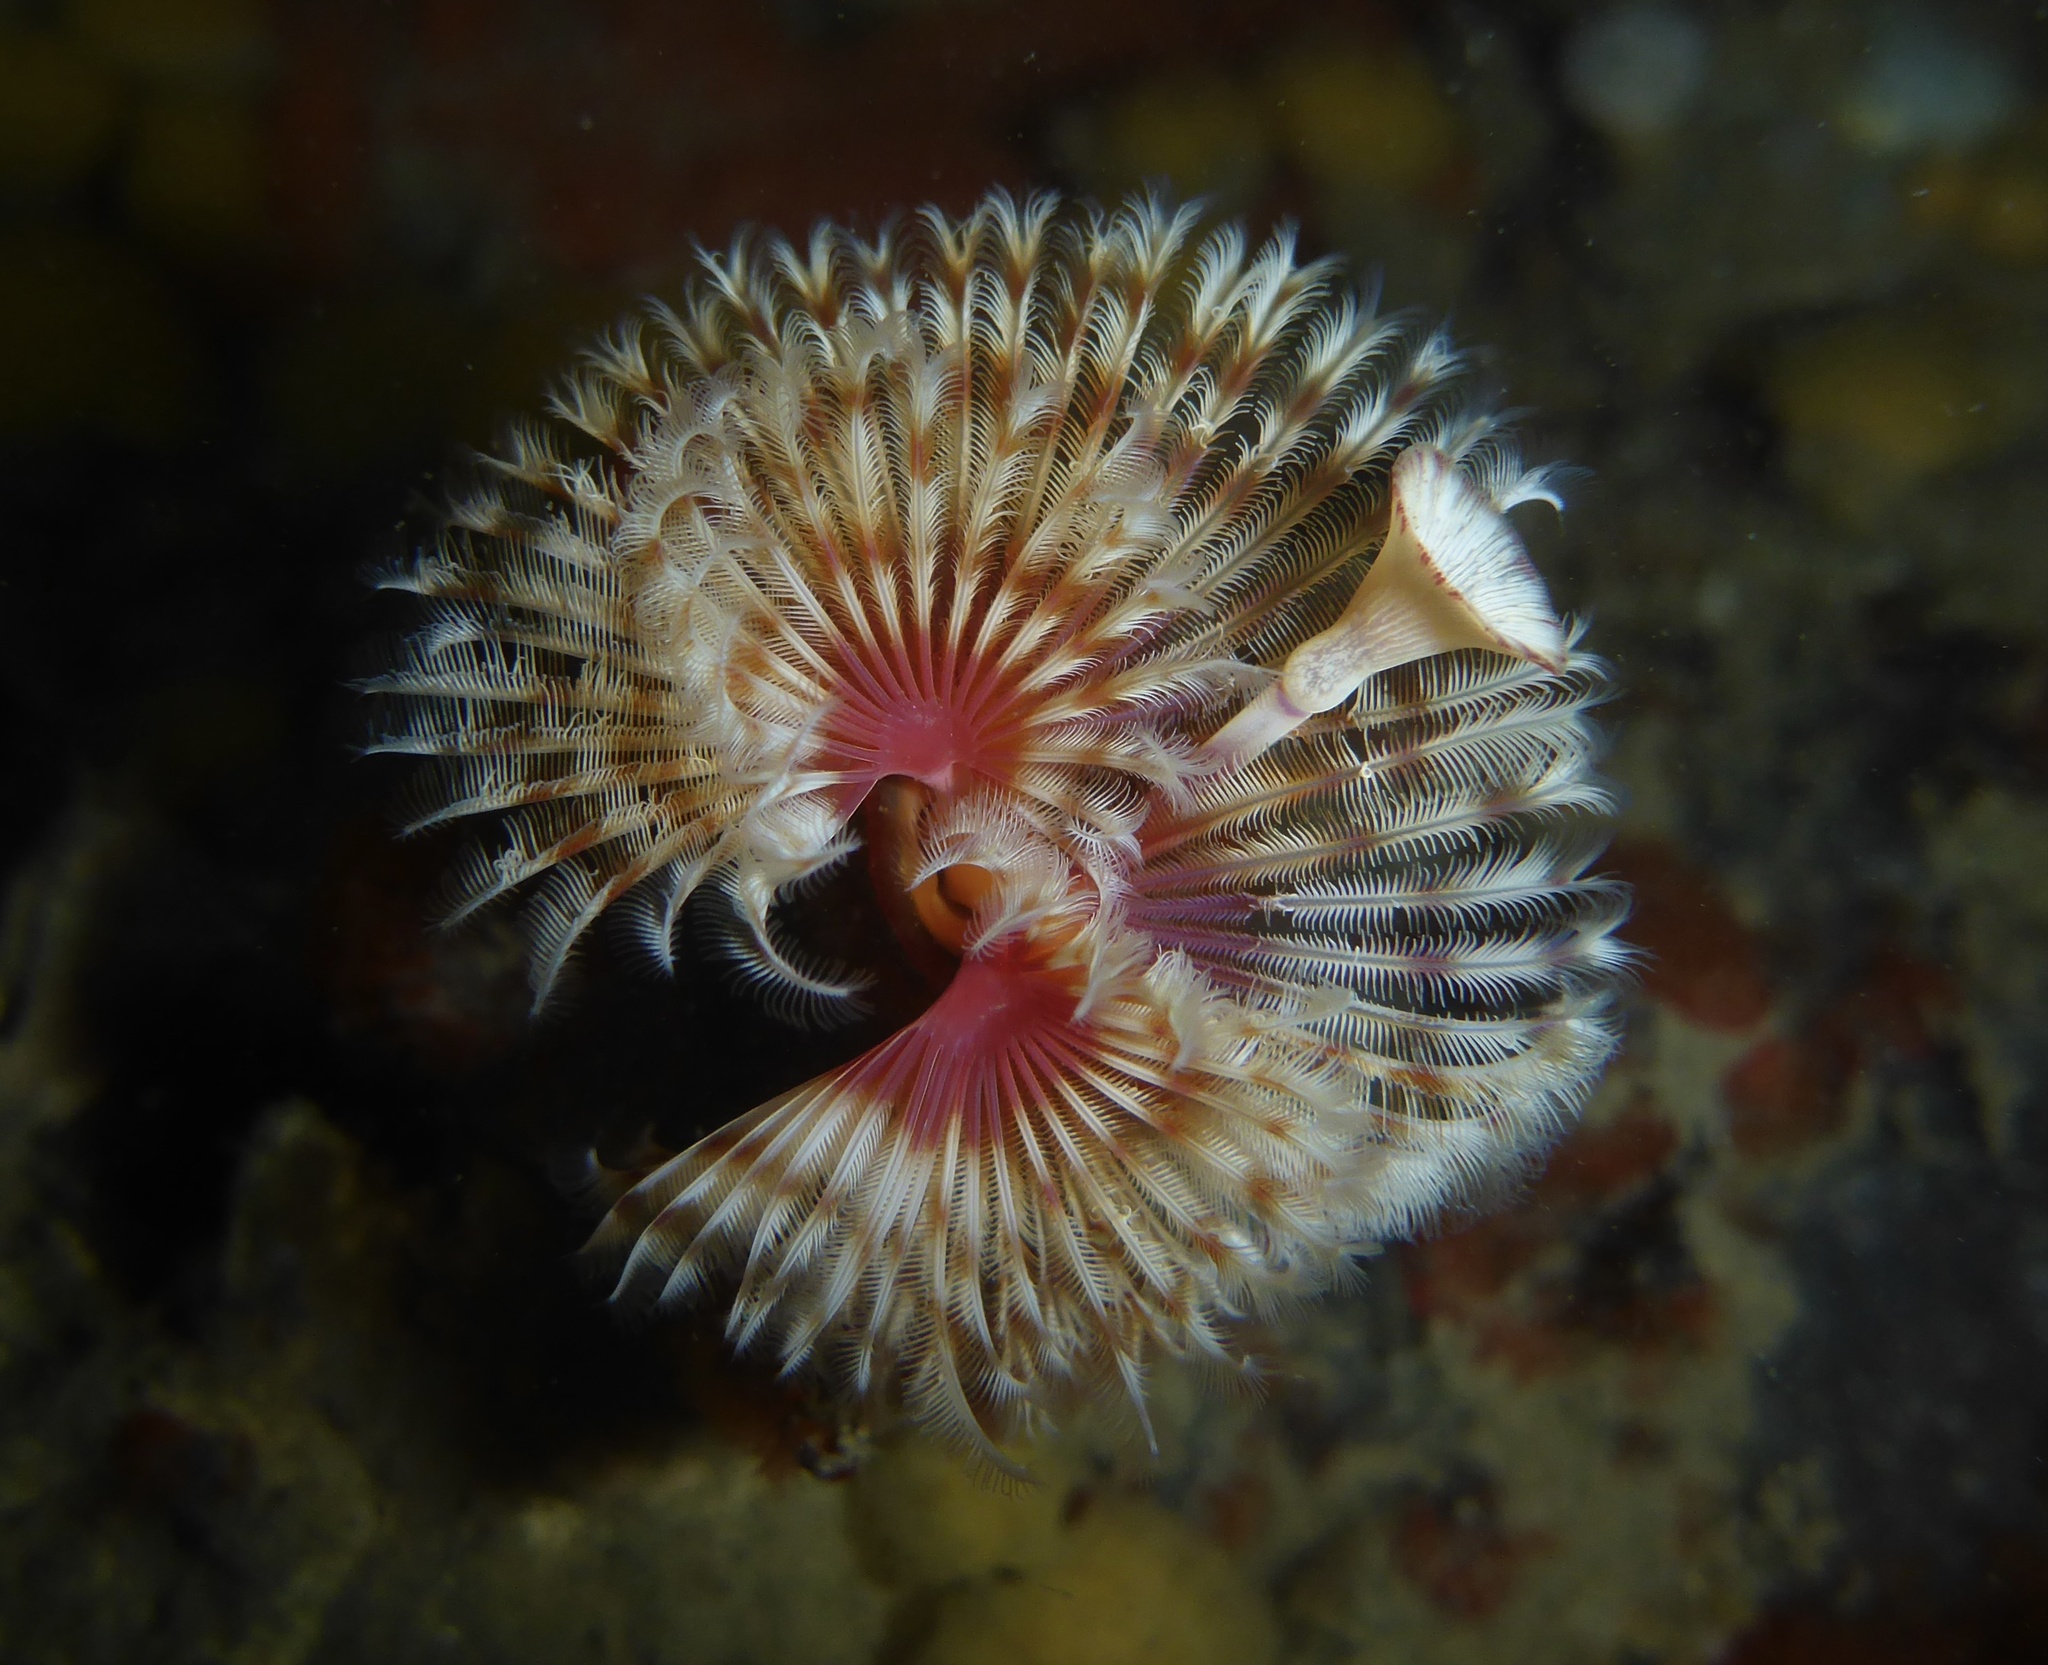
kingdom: Animalia
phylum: Annelida
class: Polychaeta
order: Sabellida
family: Serpulidae
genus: Serpula
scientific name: Serpula columbiana
